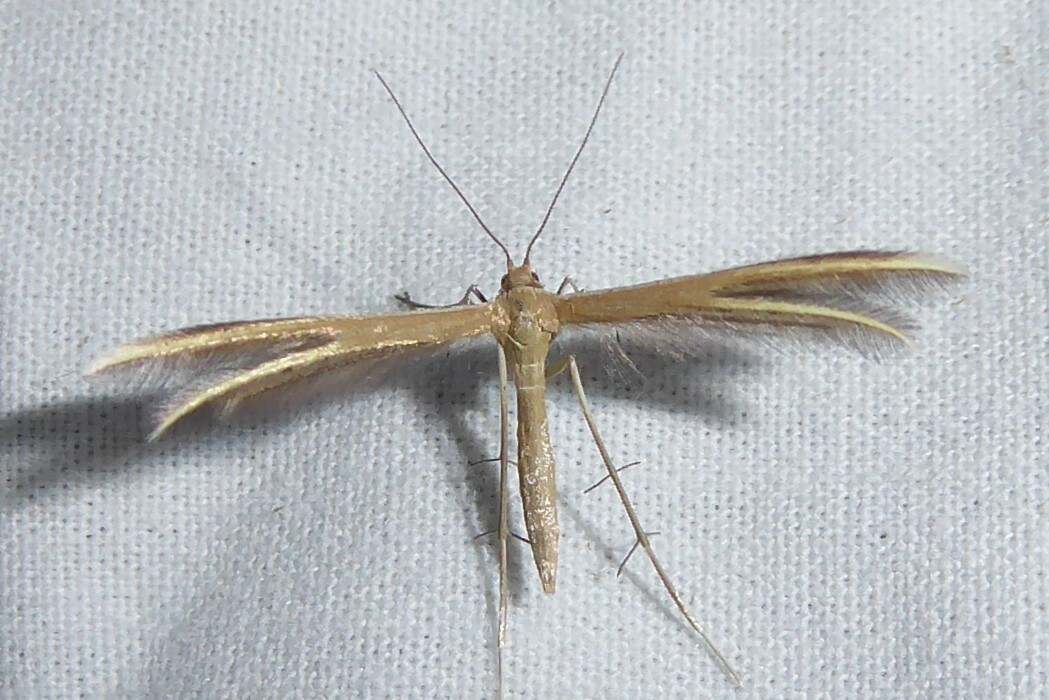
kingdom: Animalia
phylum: Arthropoda
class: Insecta
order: Lepidoptera
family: Pterophoridae
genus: Pterophorus
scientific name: Pterophorus innotatalis
